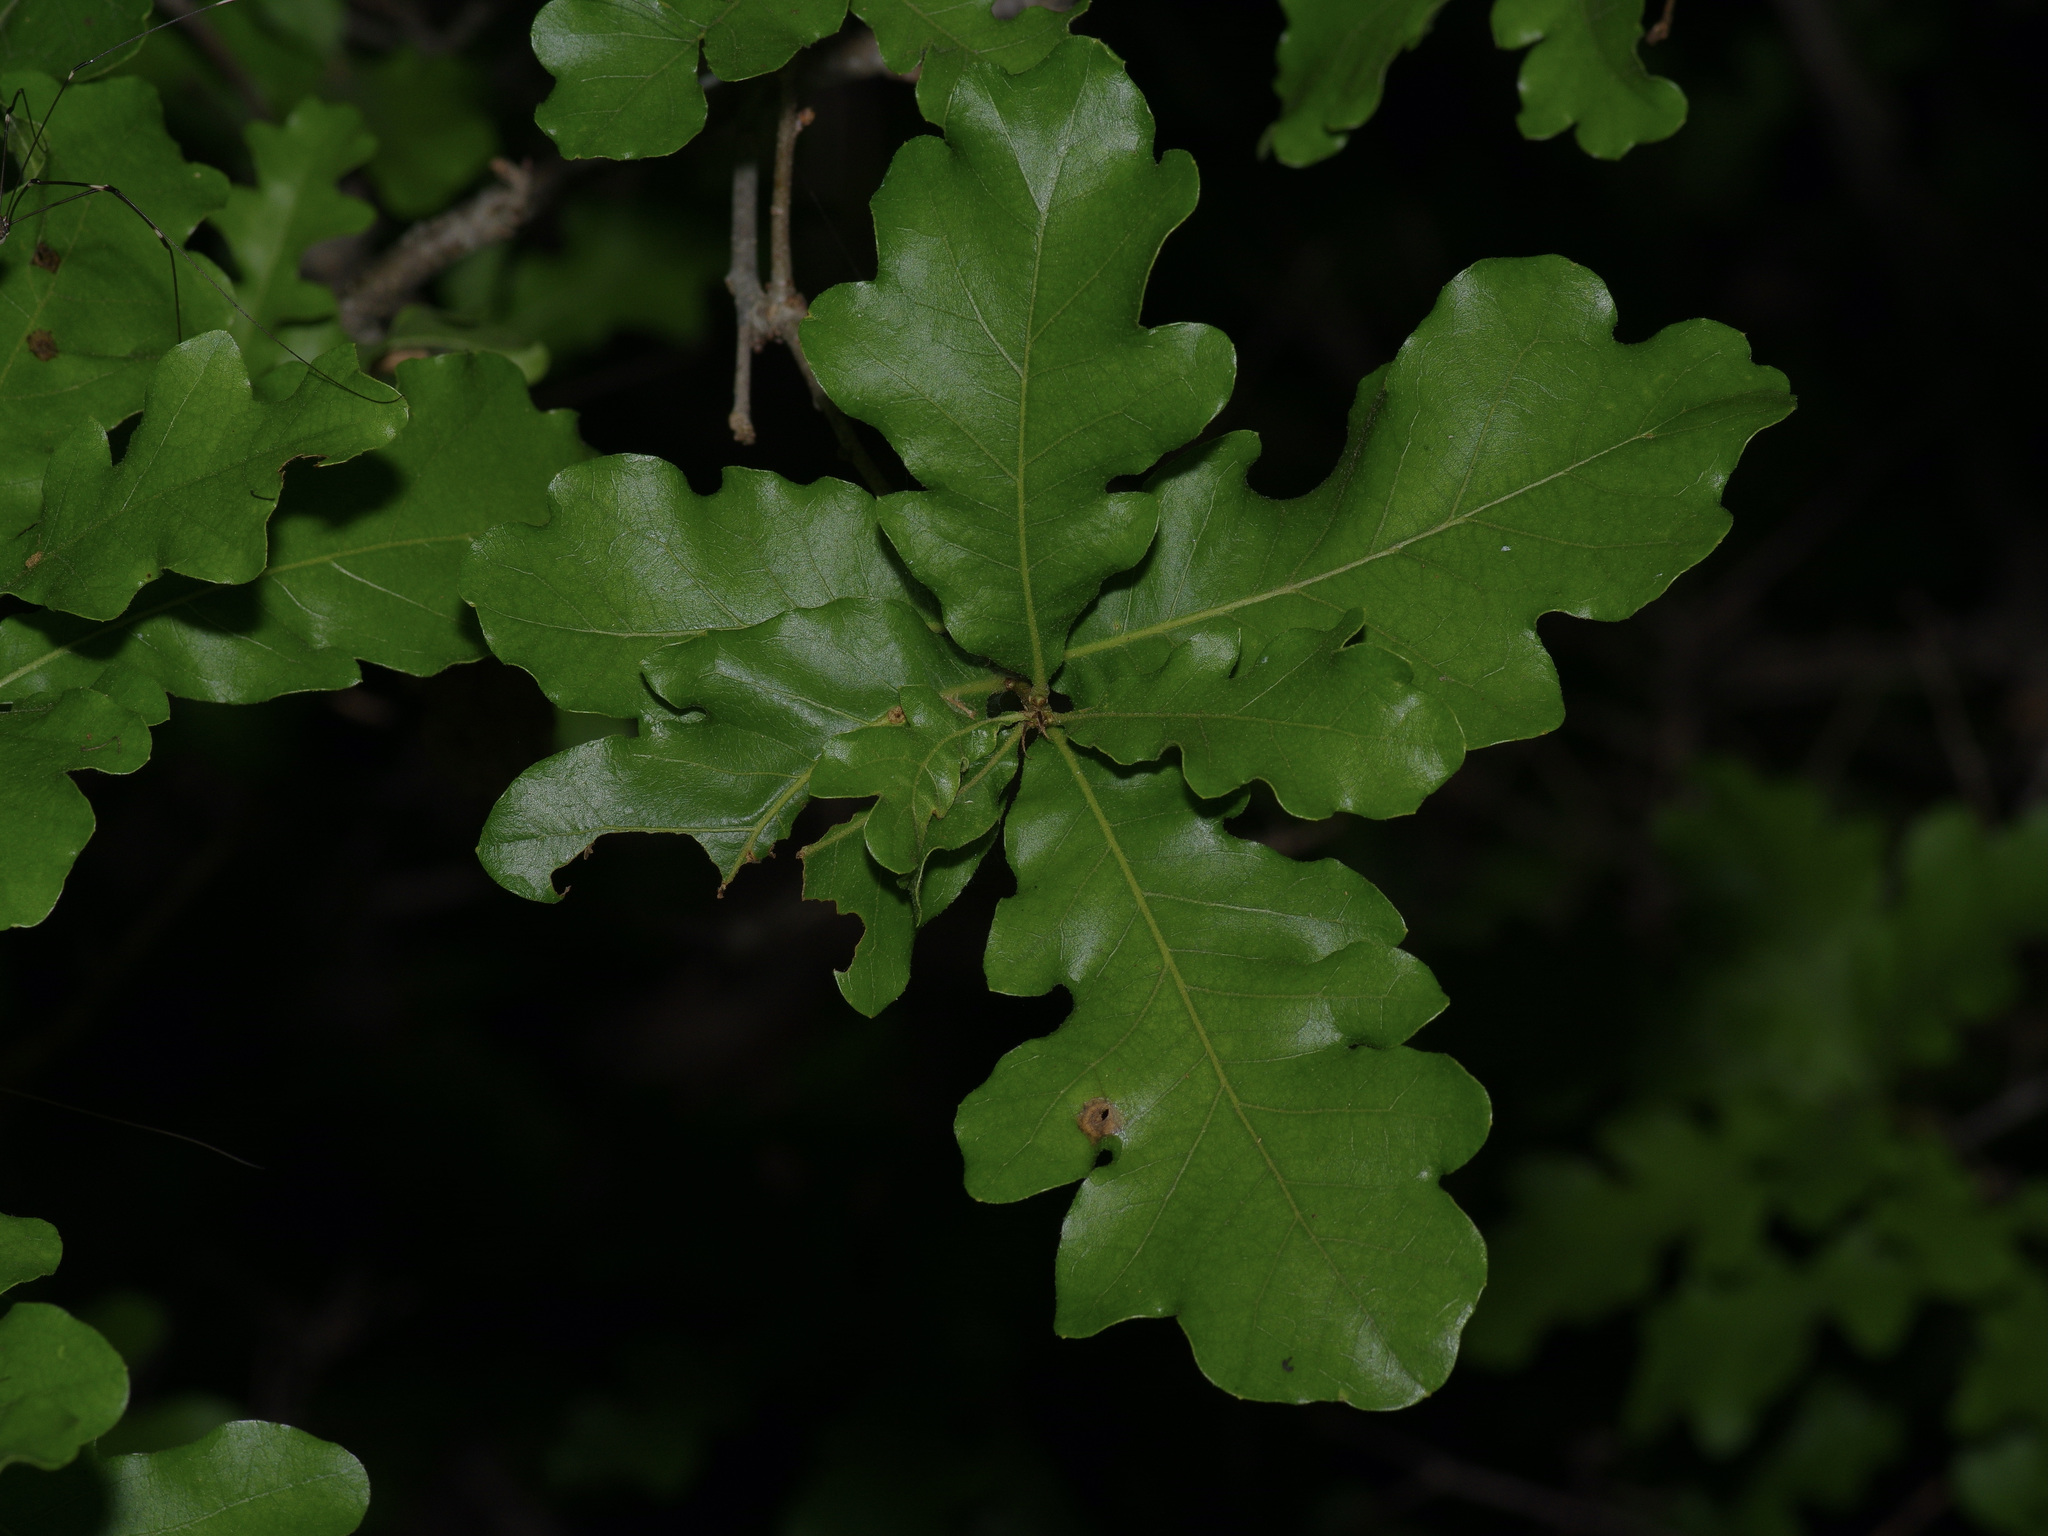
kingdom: Plantae
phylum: Tracheophyta
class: Magnoliopsida
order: Fagales
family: Fagaceae
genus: Quercus
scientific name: Quercus sinuata
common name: Durand oak
